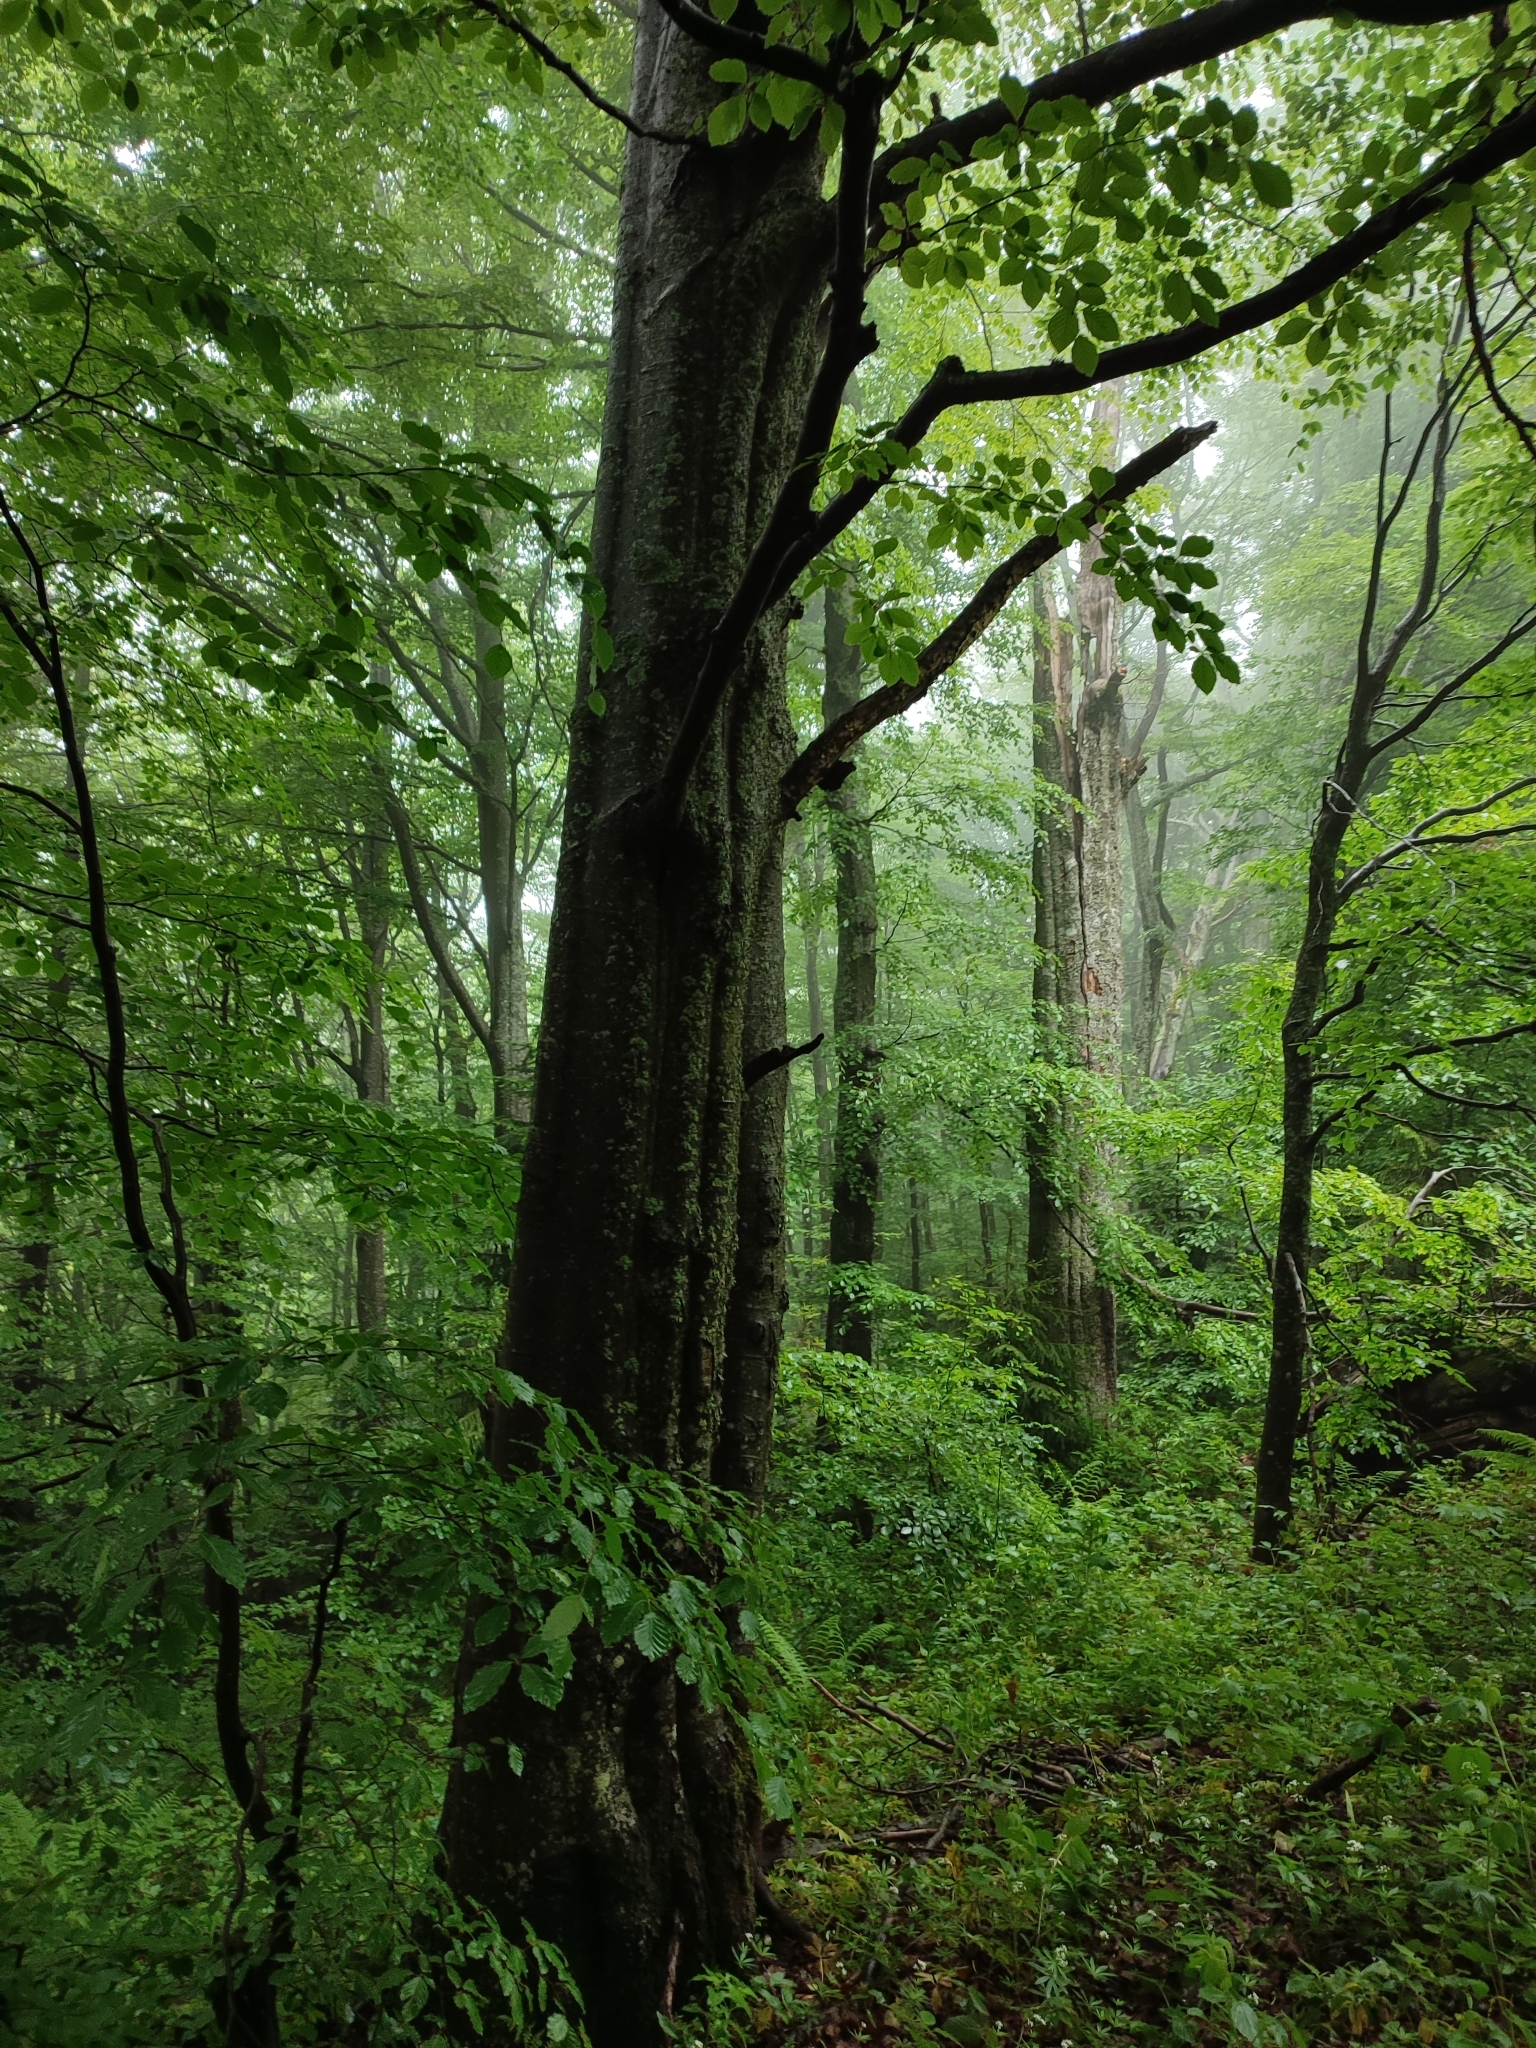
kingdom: Plantae
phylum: Tracheophyta
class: Magnoliopsida
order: Fagales
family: Fagaceae
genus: Fagus
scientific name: Fagus sylvatica
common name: Beech
